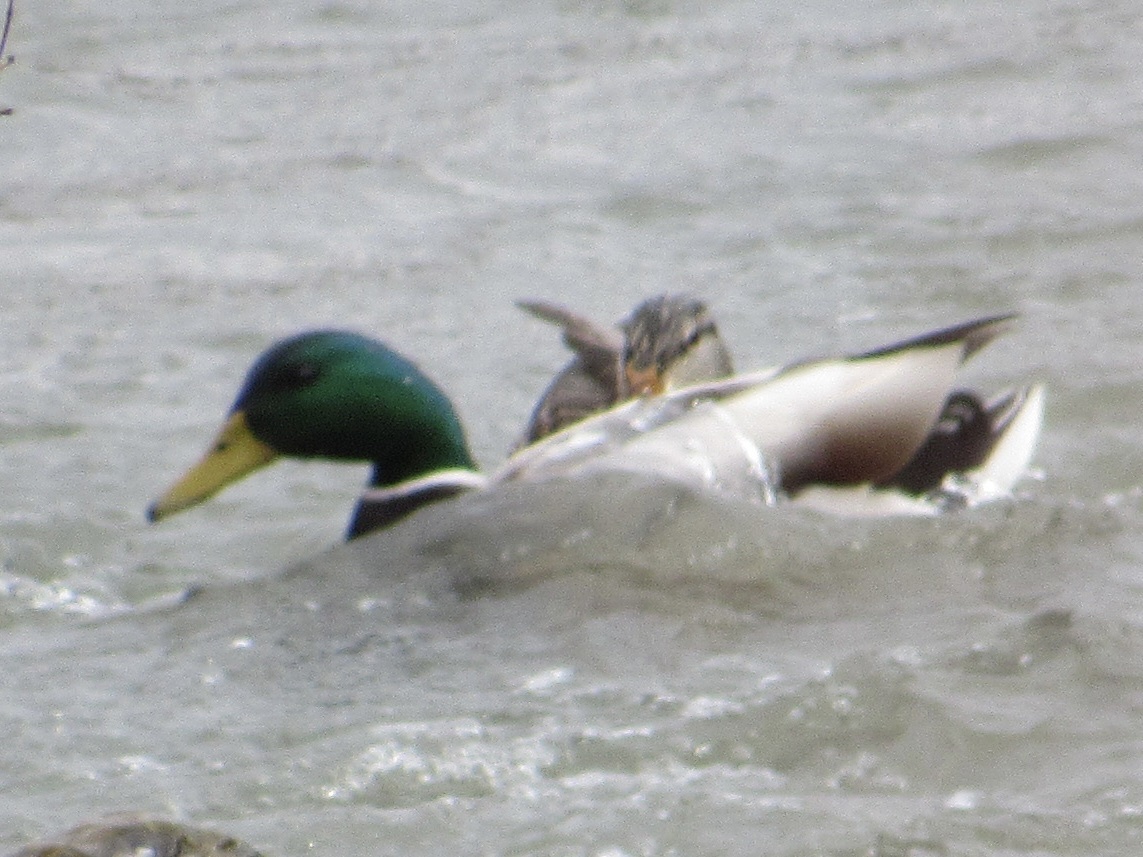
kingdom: Animalia
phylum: Chordata
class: Aves
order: Anseriformes
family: Anatidae
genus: Anas
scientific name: Anas platyrhynchos
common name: Mallard
